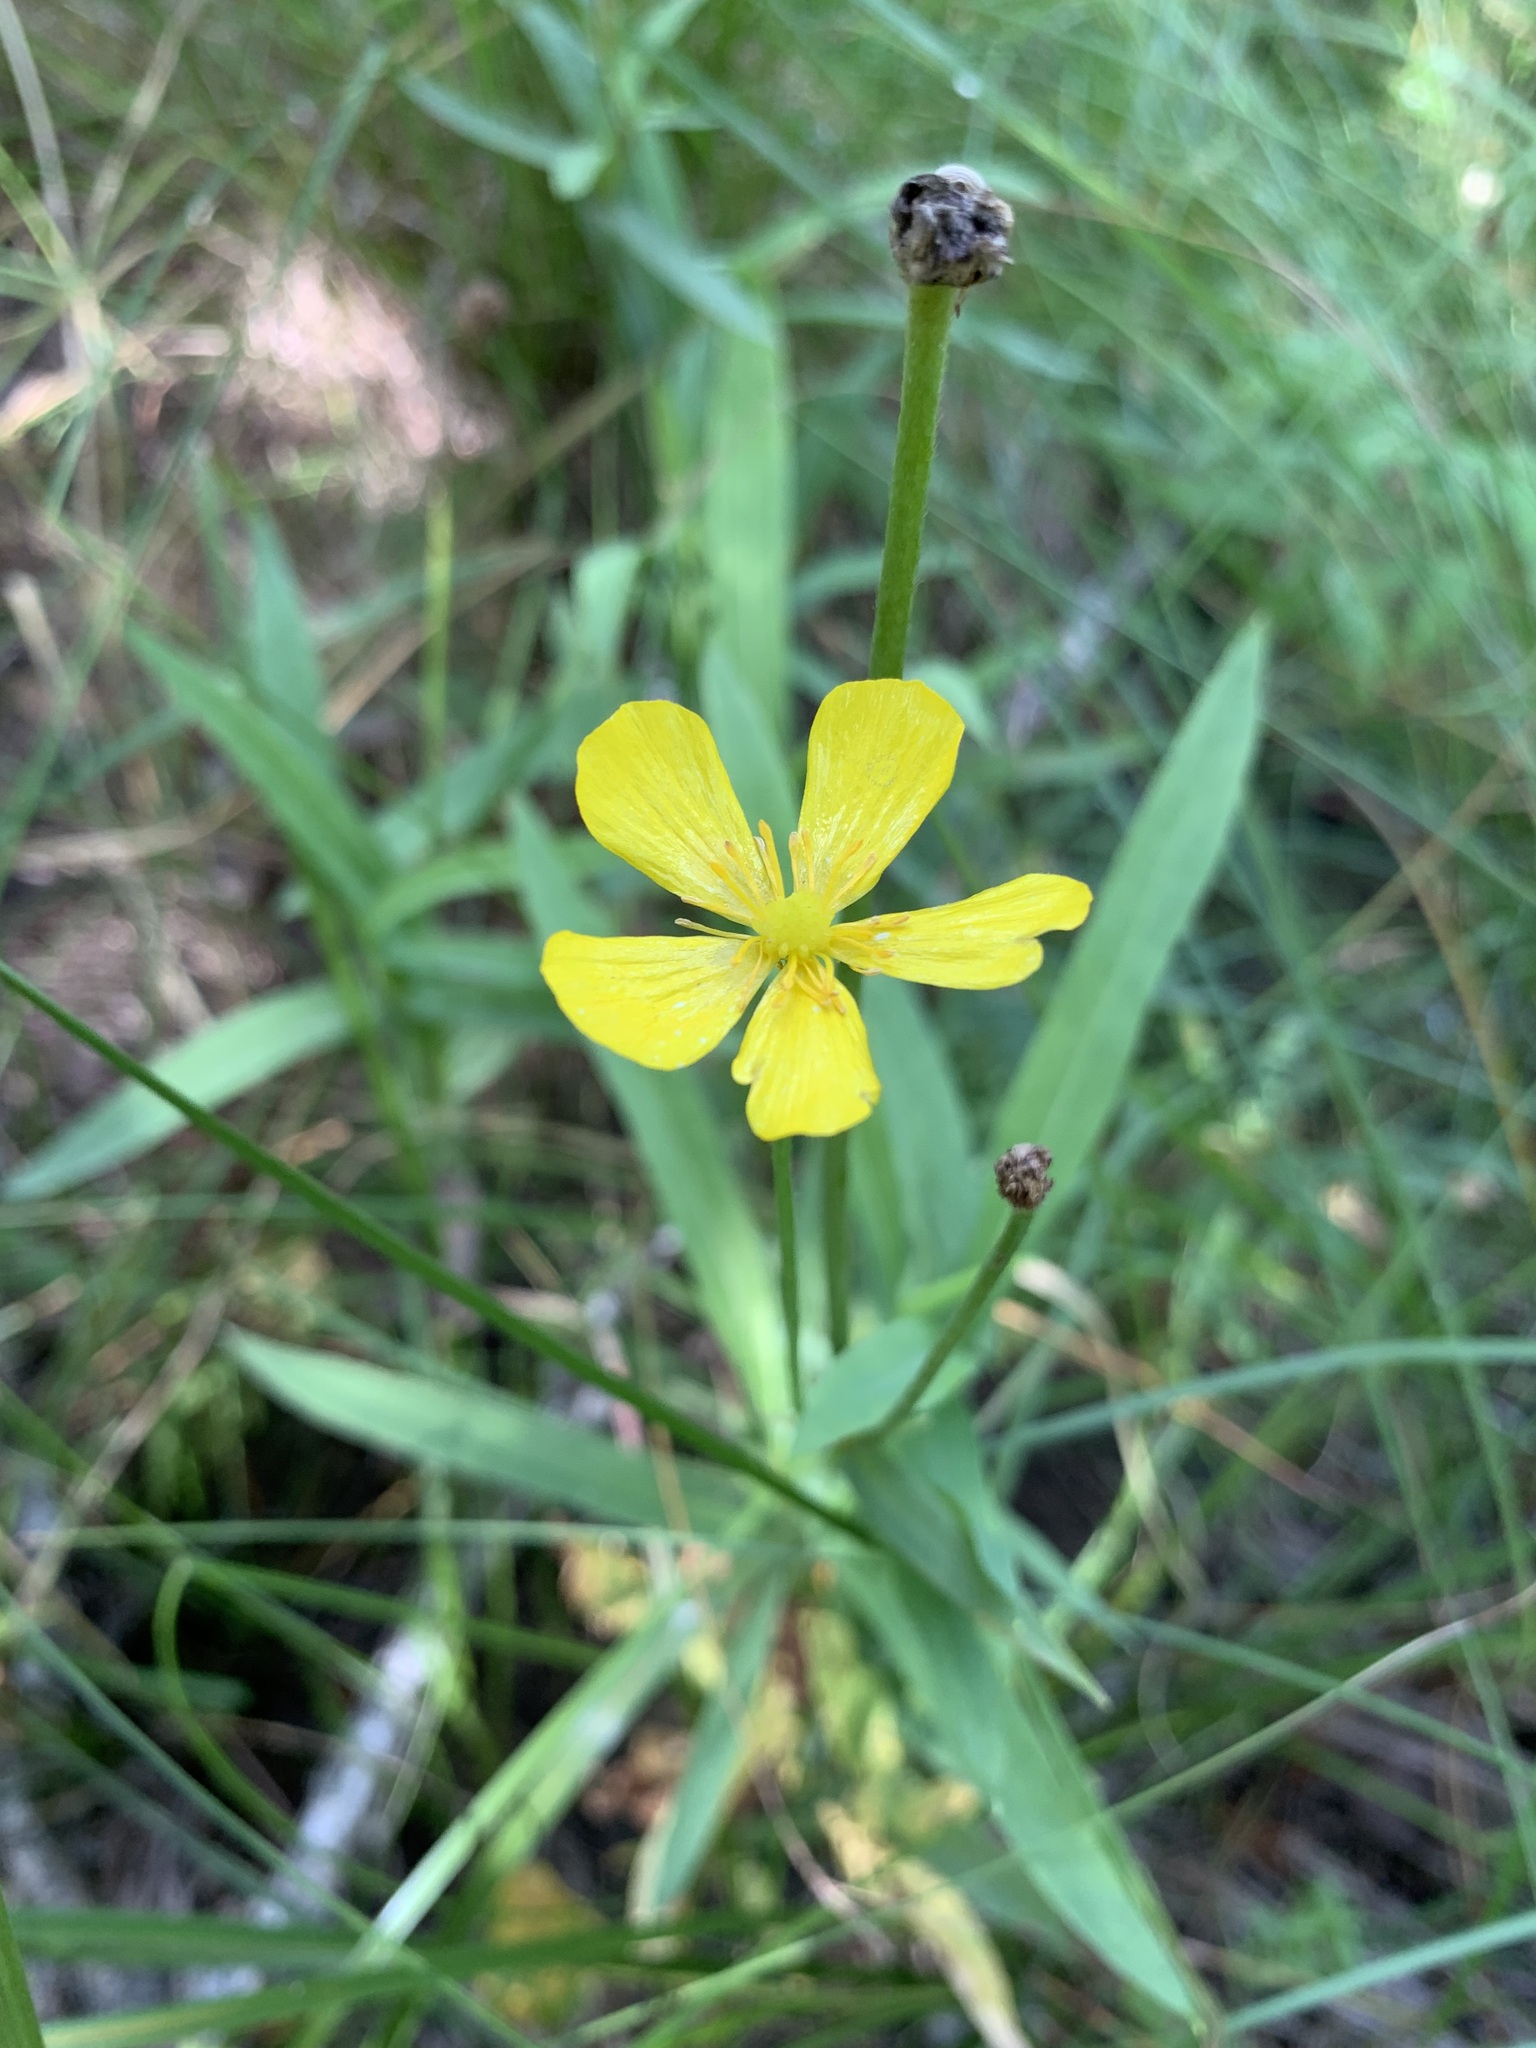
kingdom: Plantae
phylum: Tracheophyta
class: Magnoliopsida
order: Ranunculales
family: Ranunculaceae
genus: Ranunculus
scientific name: Ranunculus lingua
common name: Greater spearwort
